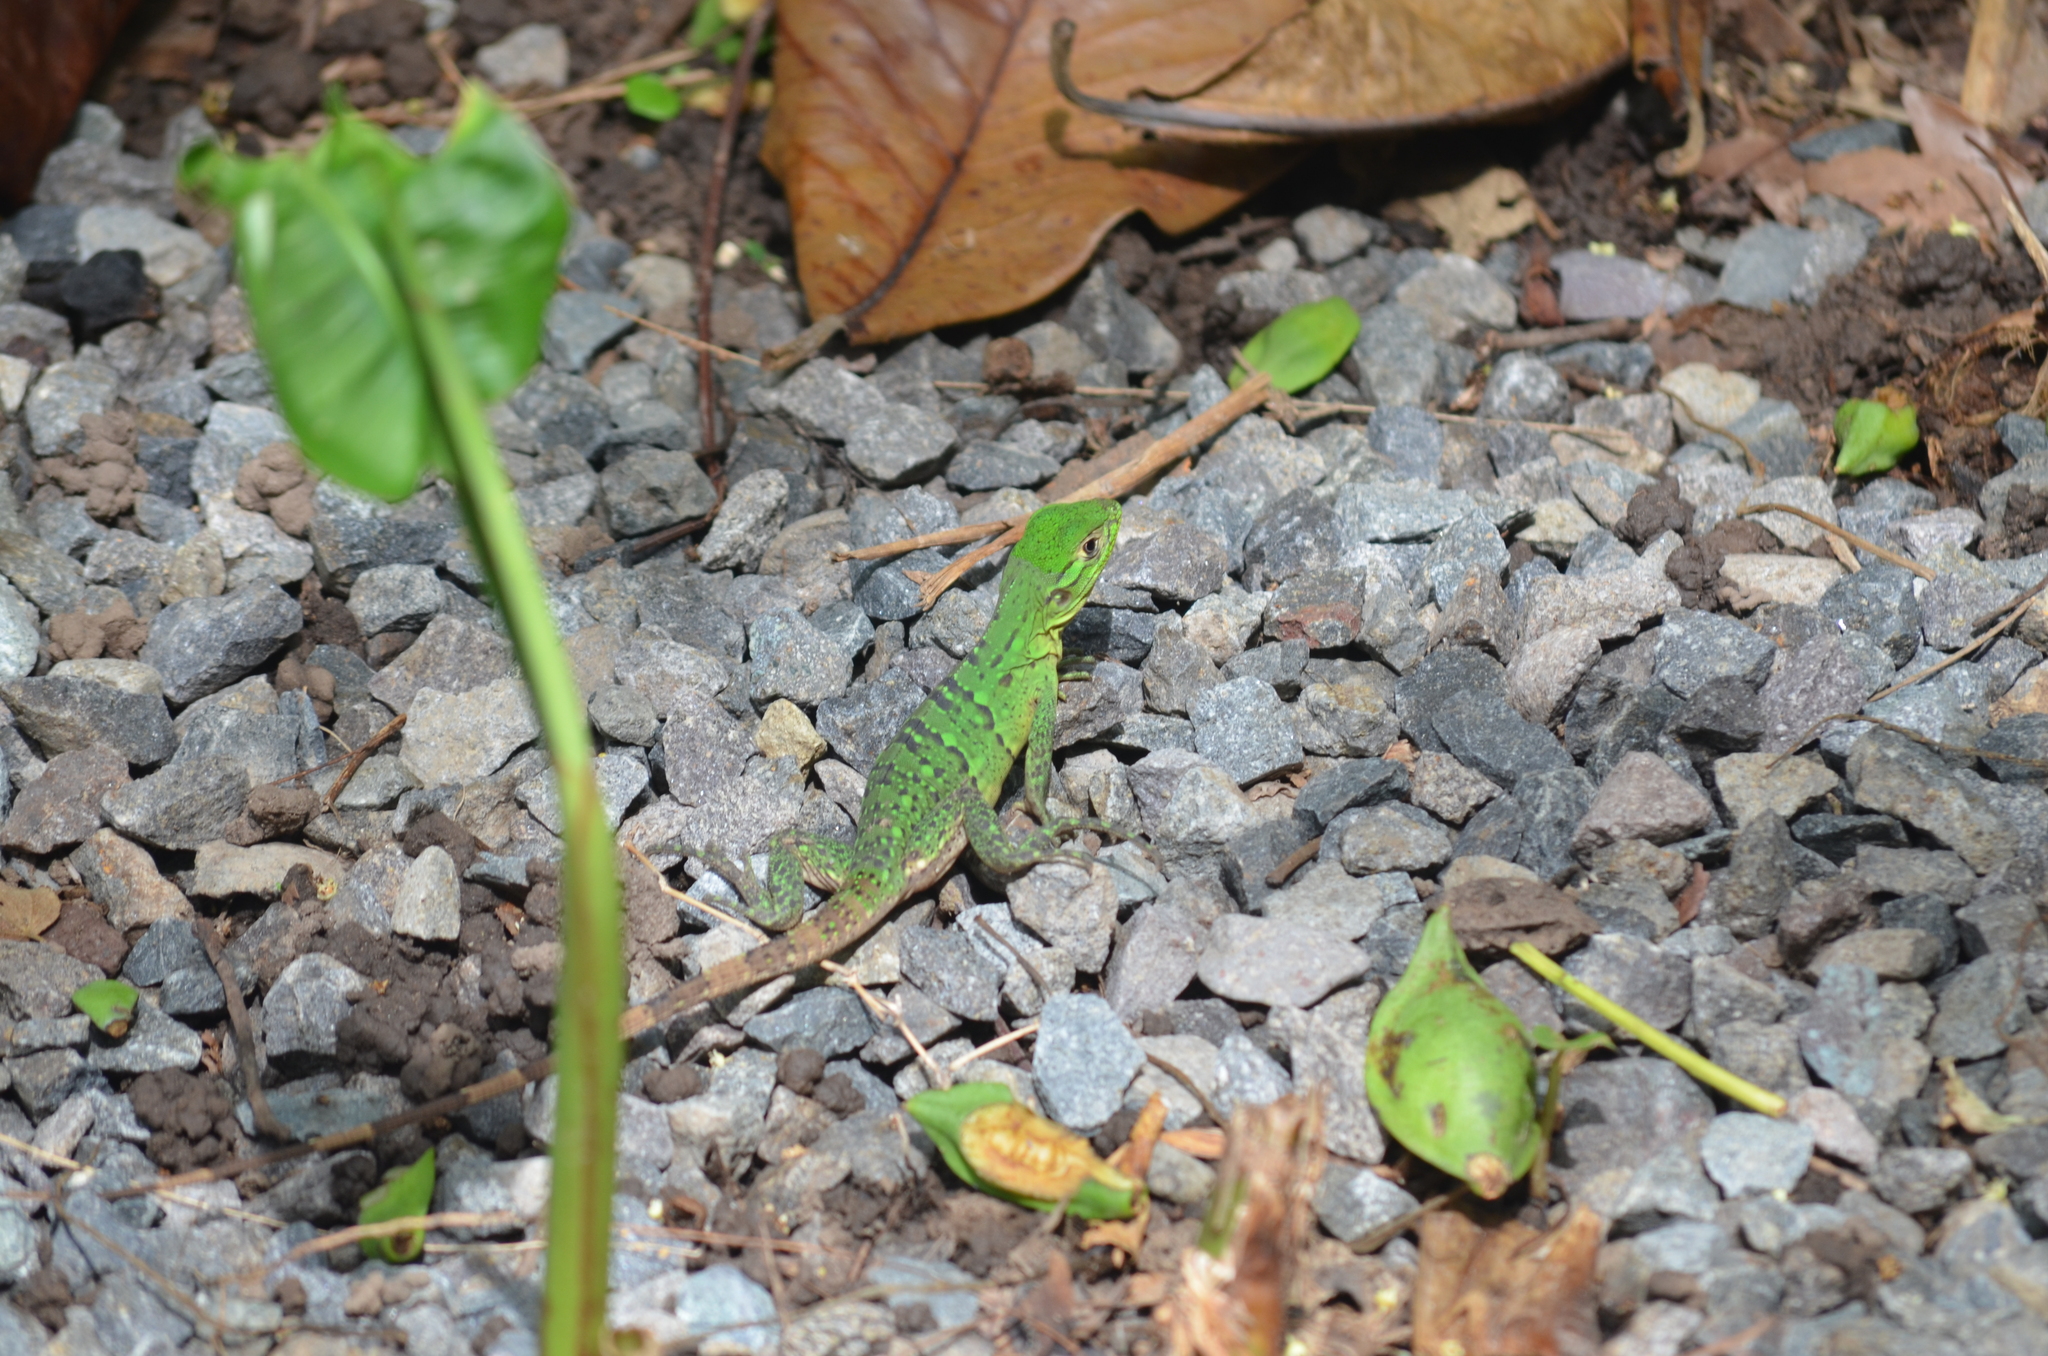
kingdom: Animalia
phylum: Chordata
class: Squamata
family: Iguanidae
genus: Ctenosaura
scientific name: Ctenosaura similis
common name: Black spiny-tailed iguana
